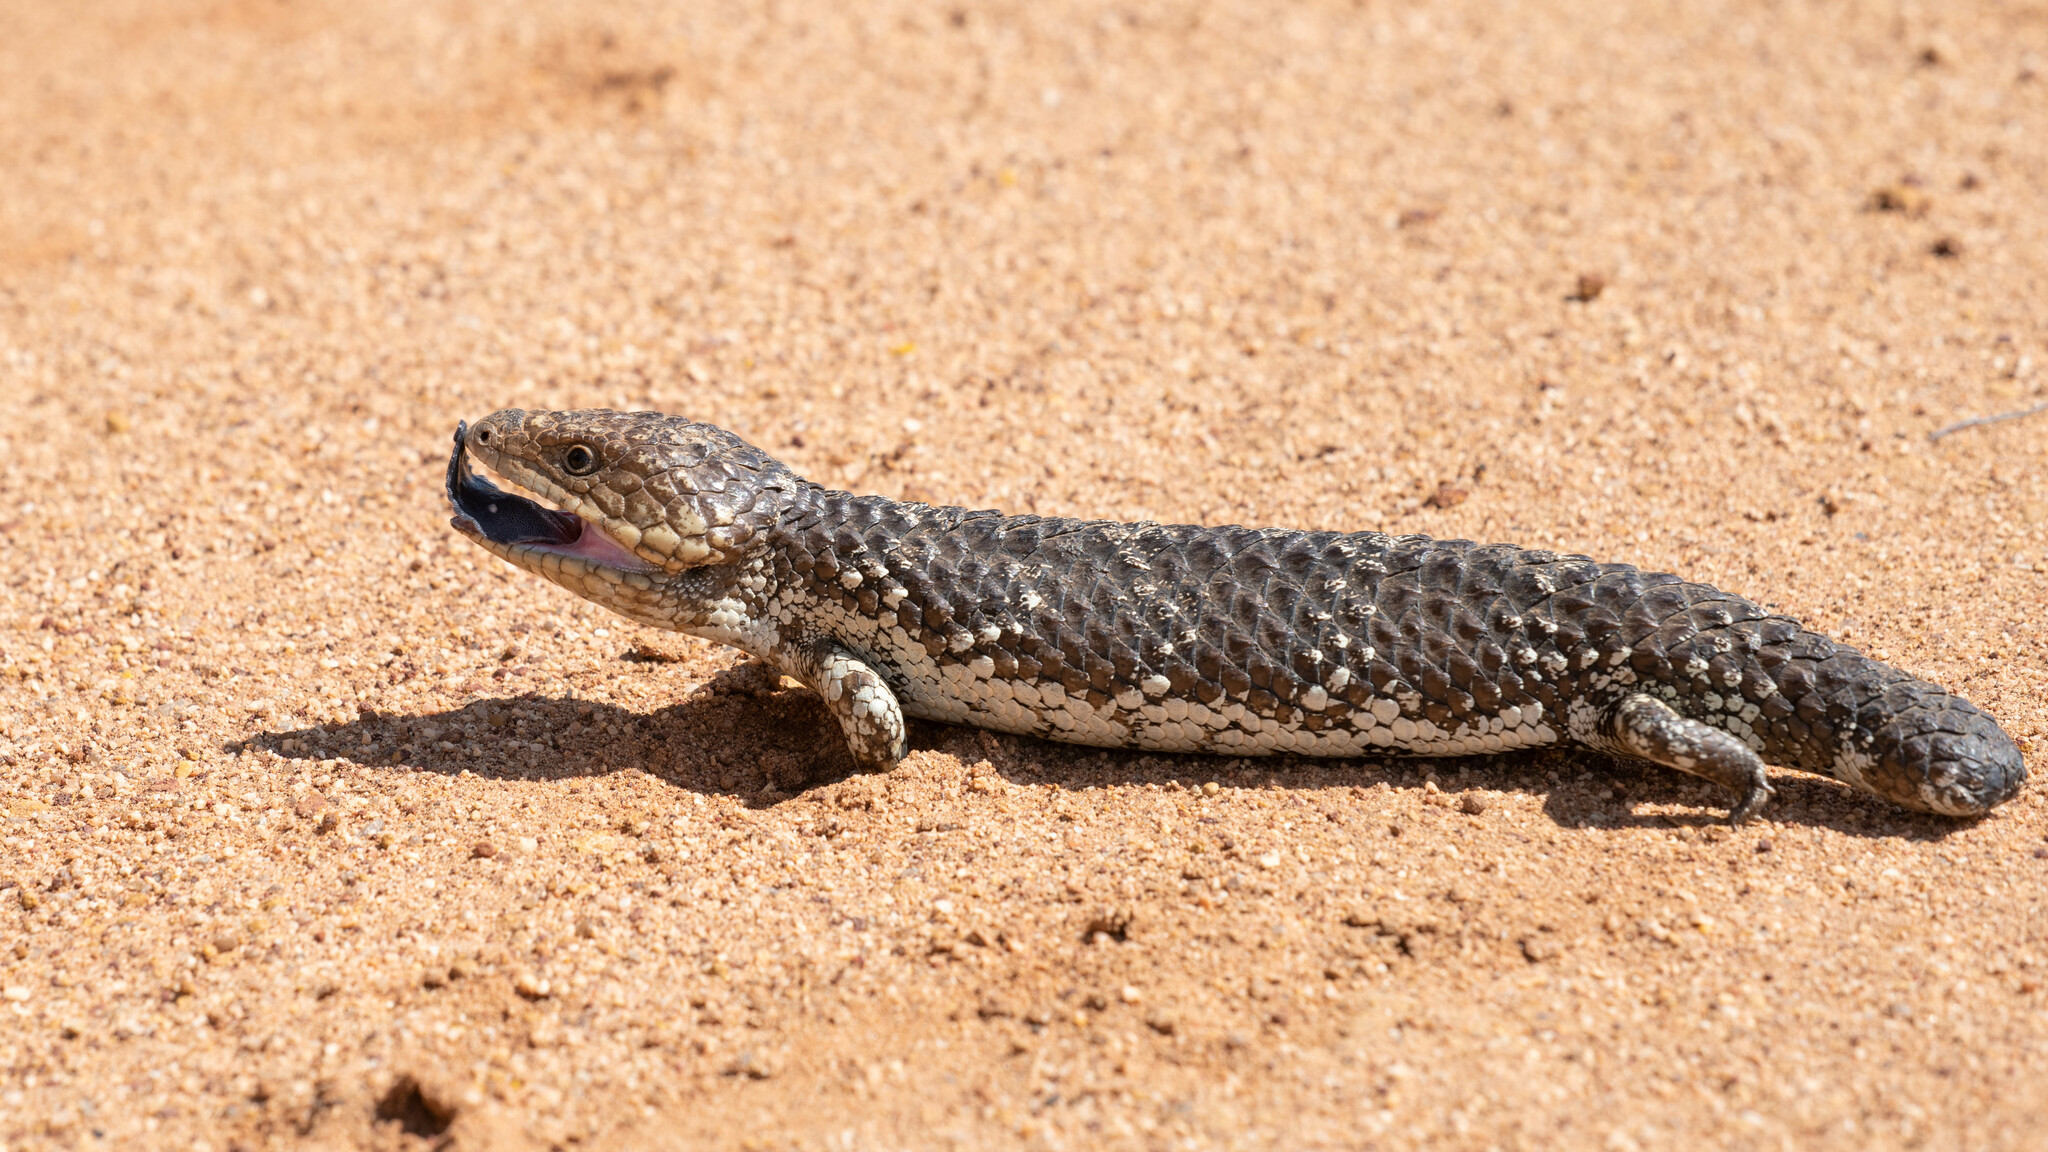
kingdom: Animalia
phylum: Chordata
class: Squamata
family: Scincidae
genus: Tiliqua
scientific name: Tiliqua rugosa
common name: Pinecone lizard
